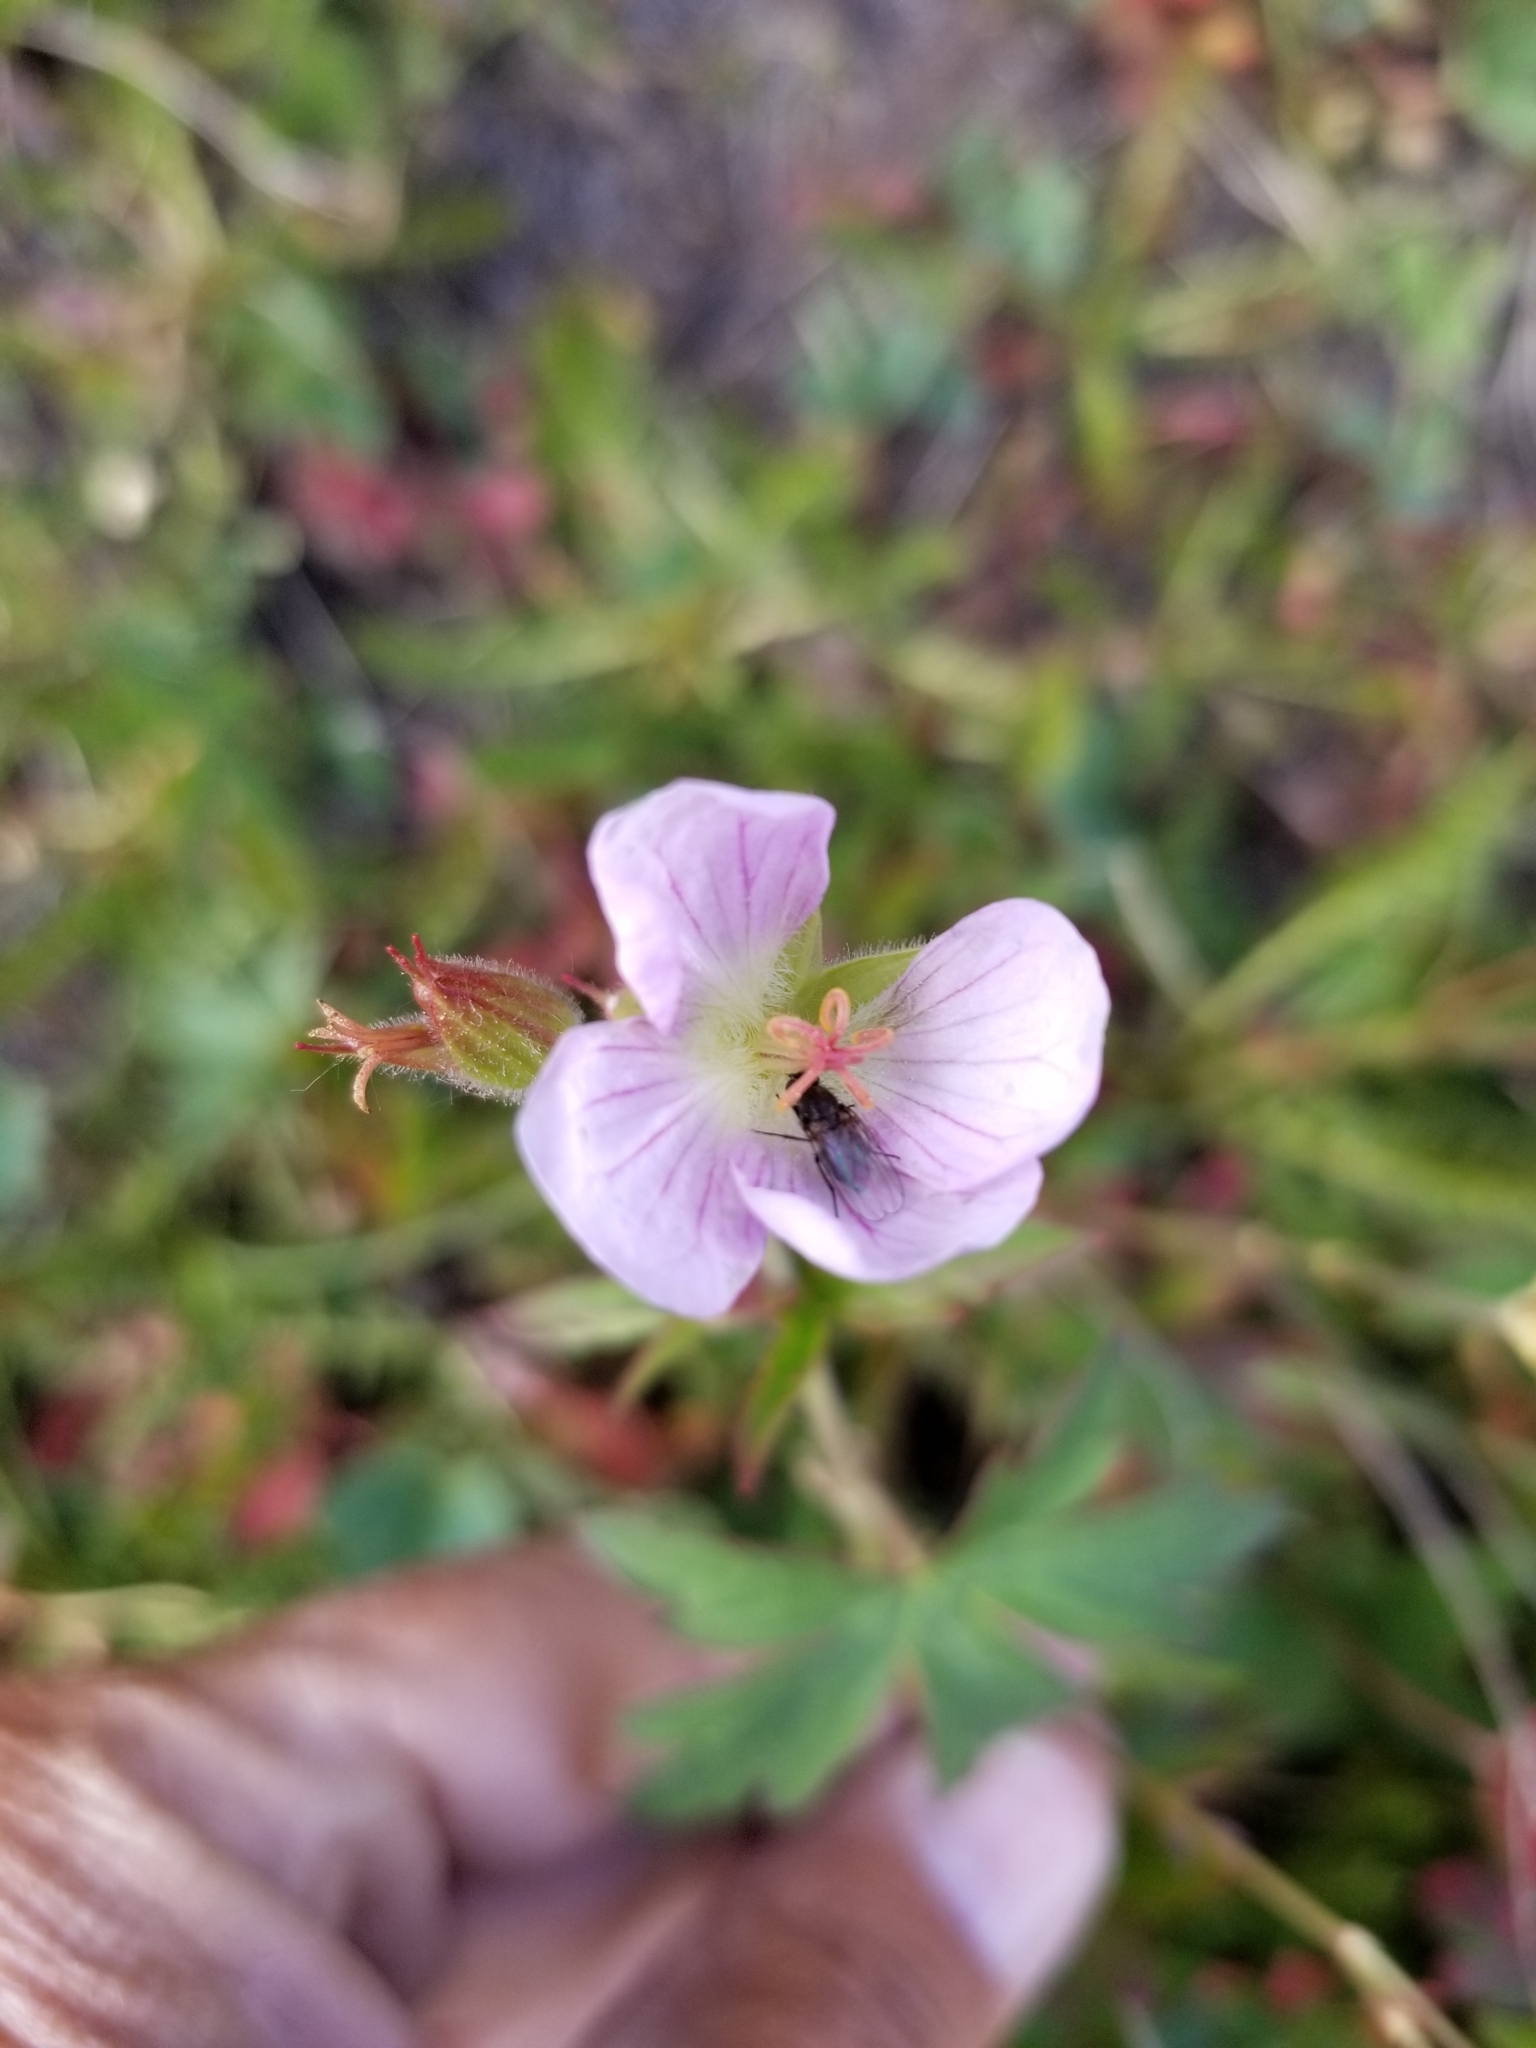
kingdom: Plantae
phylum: Tracheophyta
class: Magnoliopsida
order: Geraniales
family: Geraniaceae
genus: Geranium
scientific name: Geranium richardsonii
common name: Richardson's crane's-bill
